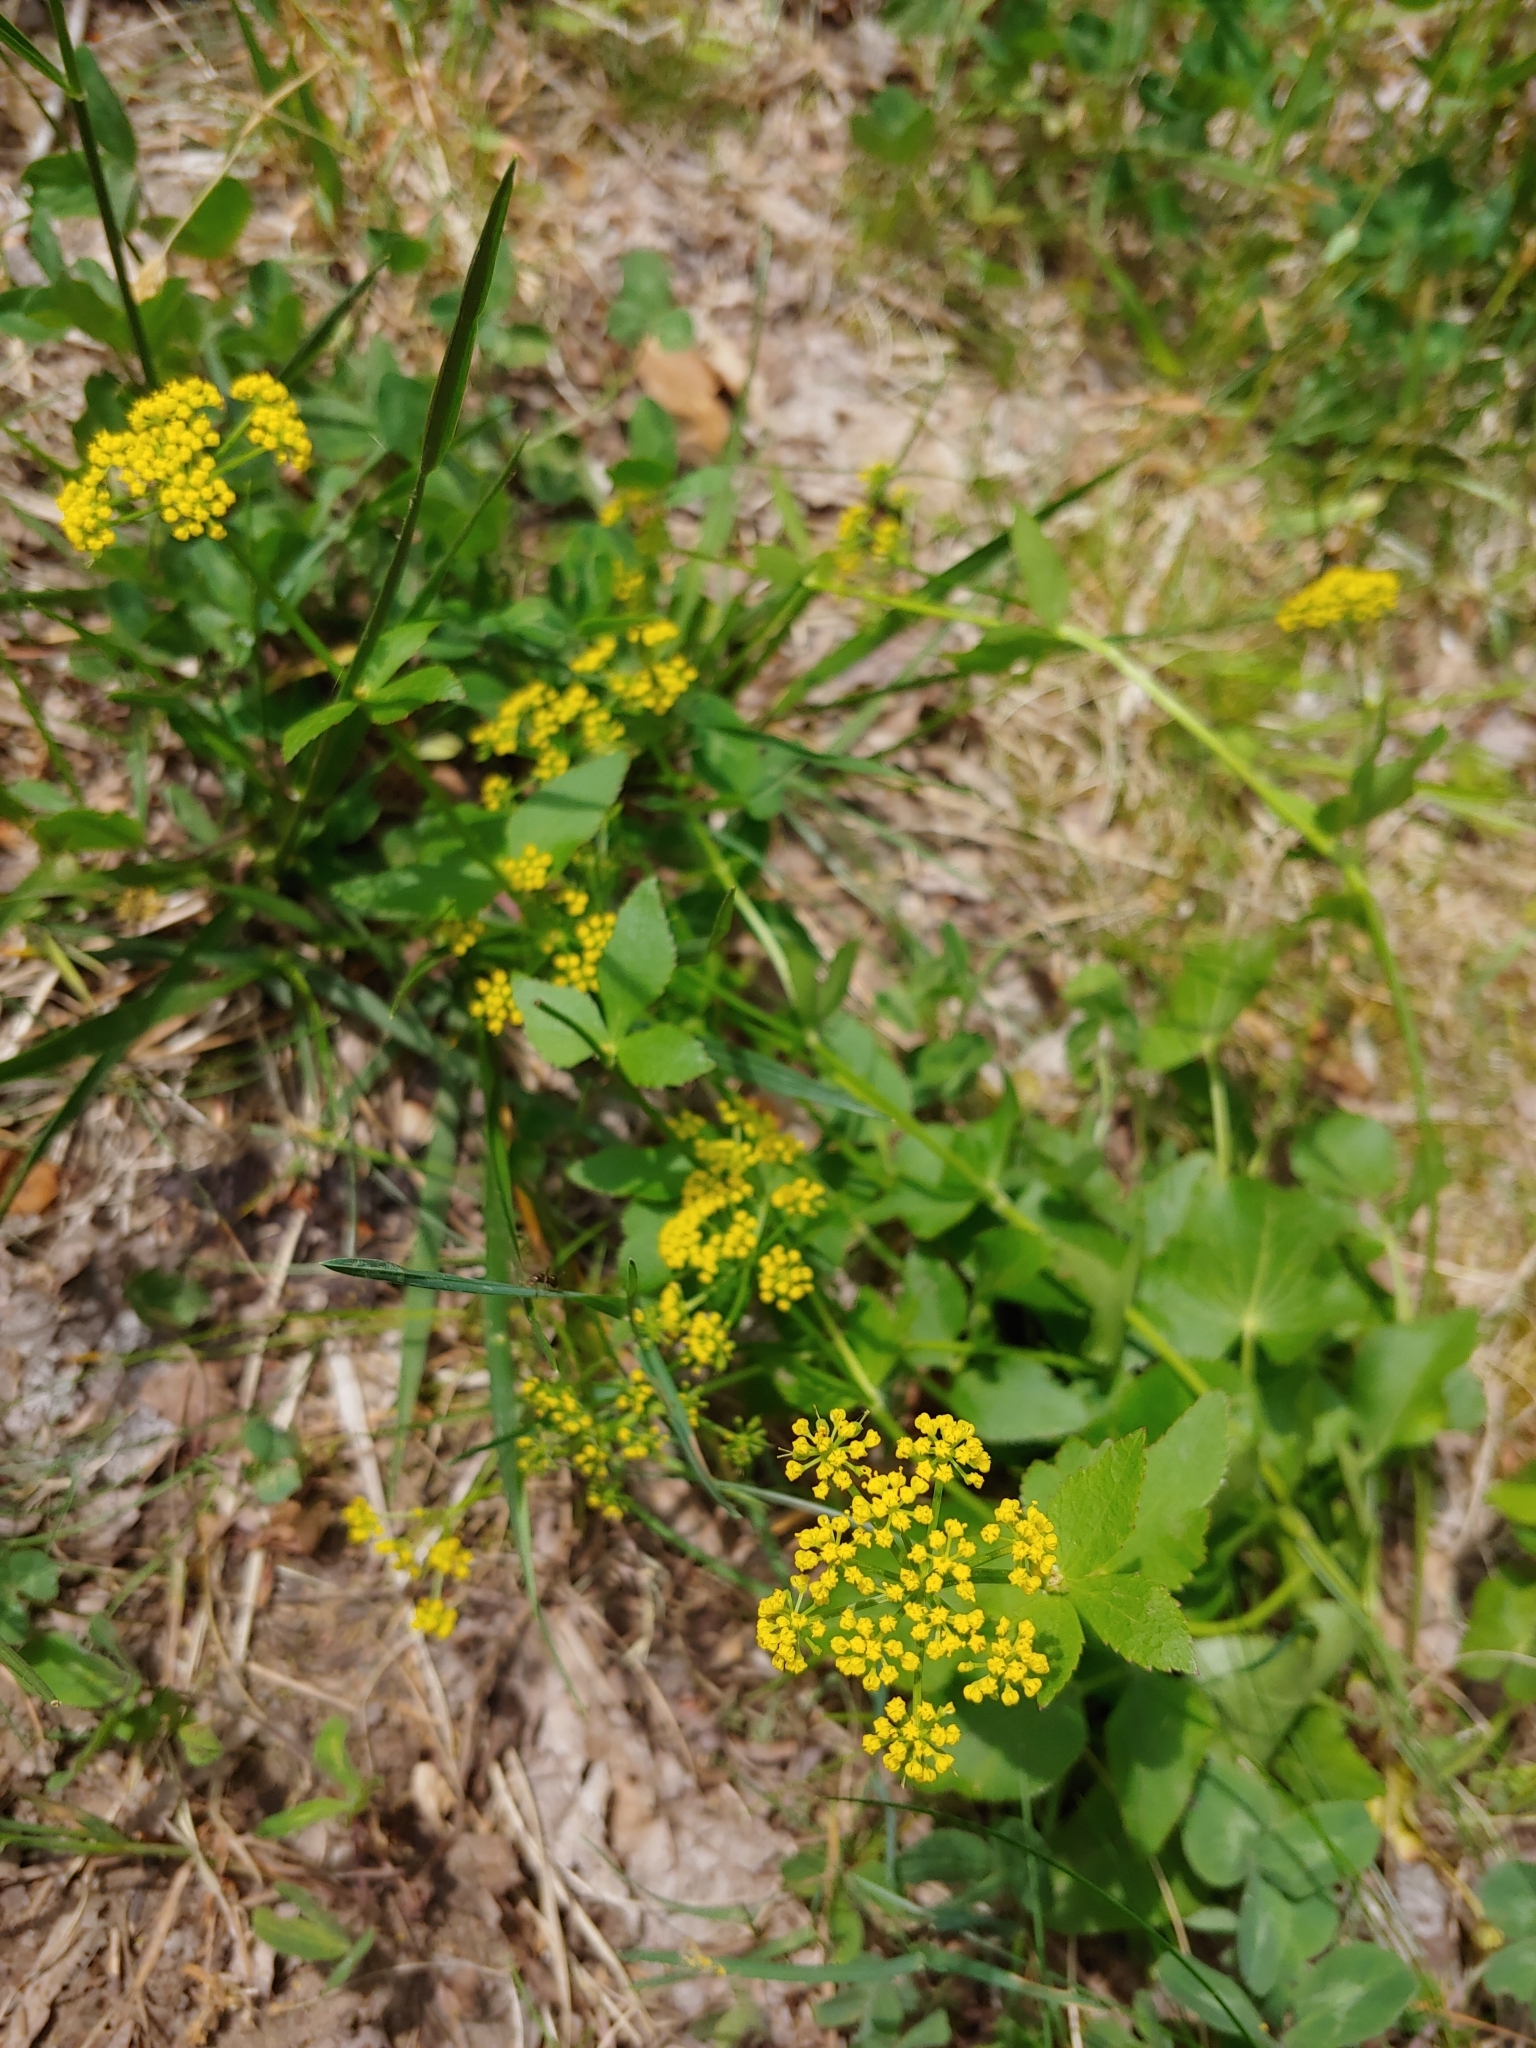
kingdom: Plantae
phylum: Tracheophyta
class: Magnoliopsida
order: Apiales
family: Apiaceae
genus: Zizia
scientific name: Zizia aurea
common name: Golden alexanders
